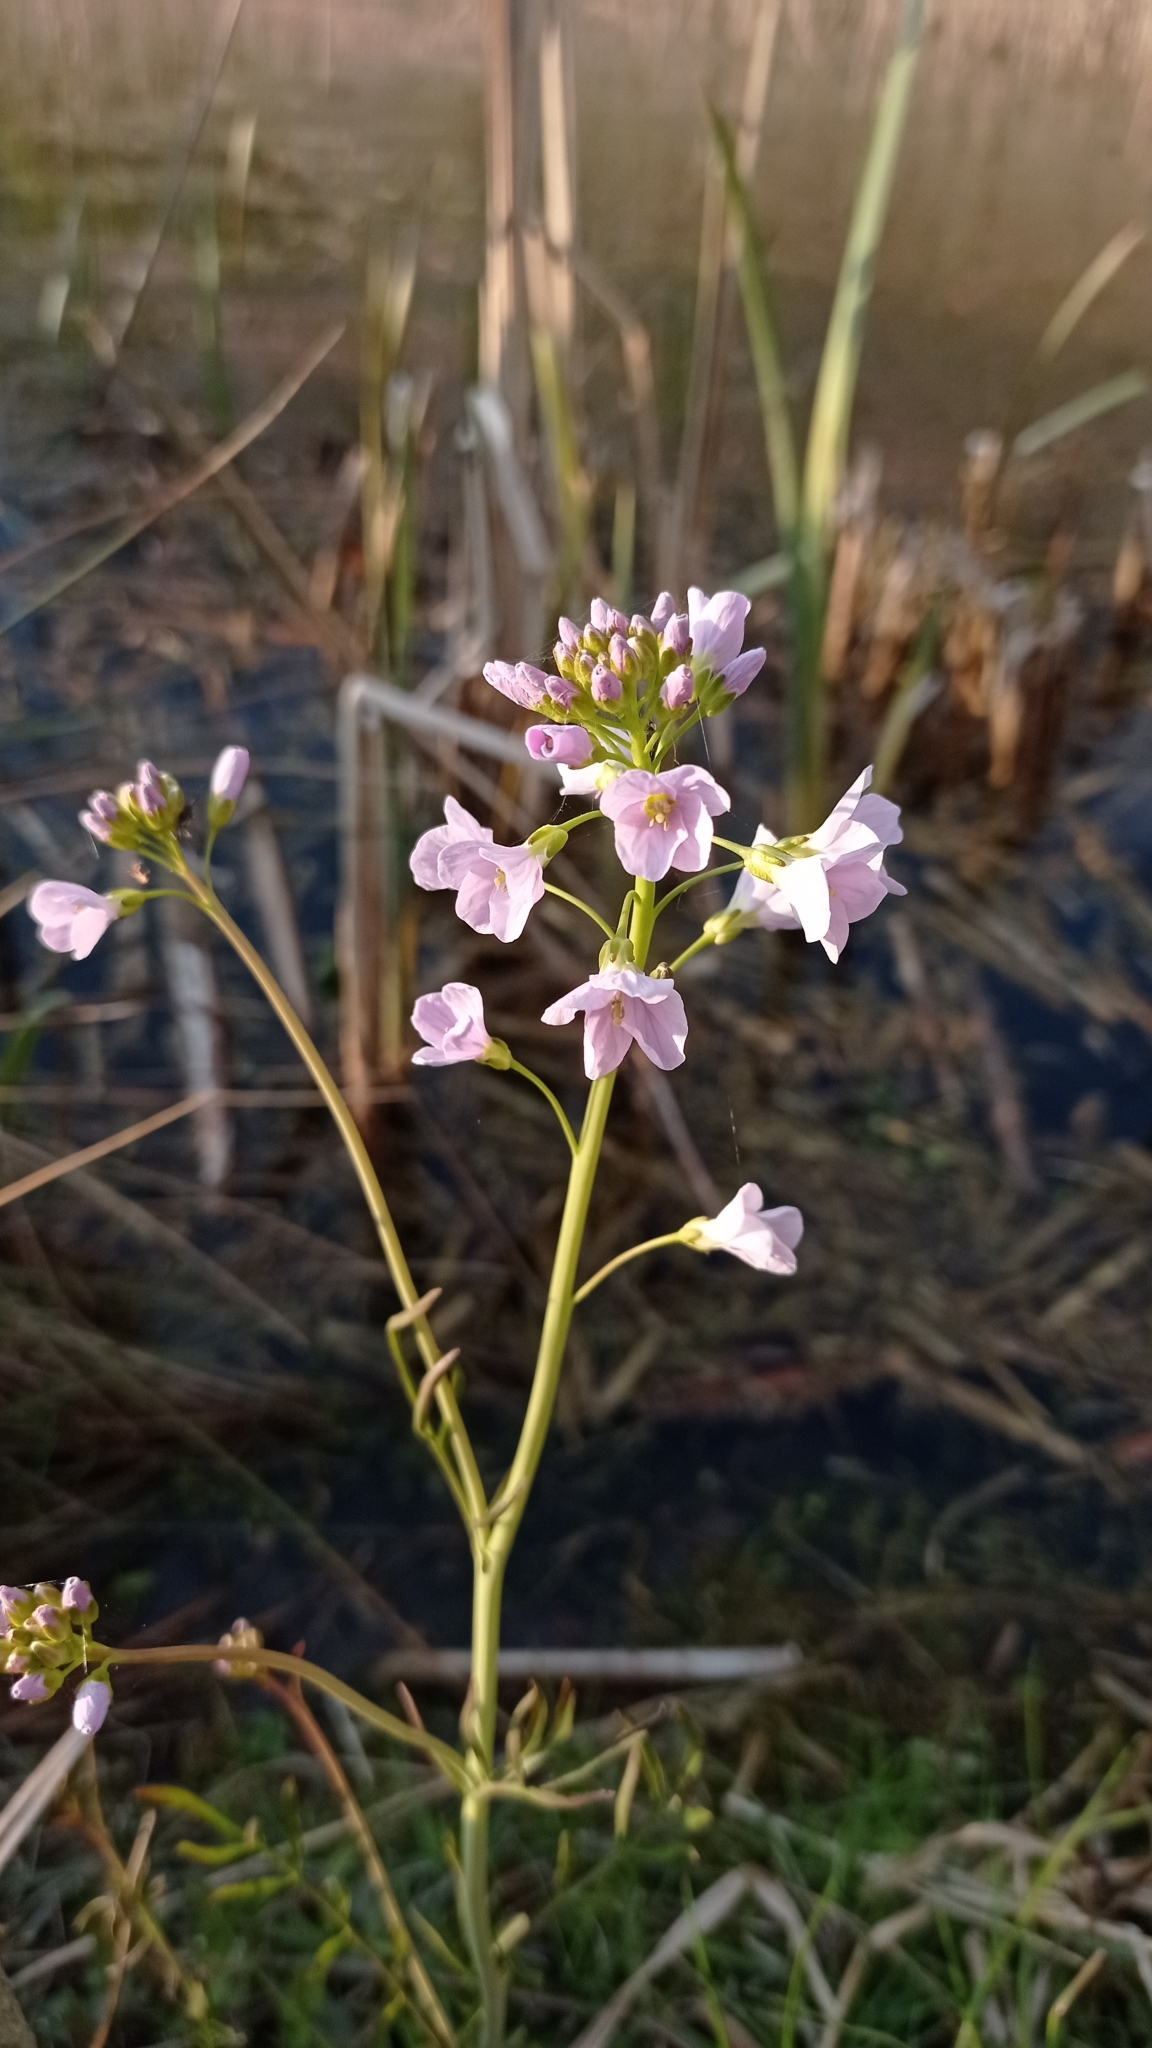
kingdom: Plantae
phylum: Tracheophyta
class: Magnoliopsida
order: Brassicales
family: Brassicaceae
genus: Cardamine
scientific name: Cardamine pratensis
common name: Cuckoo flower
